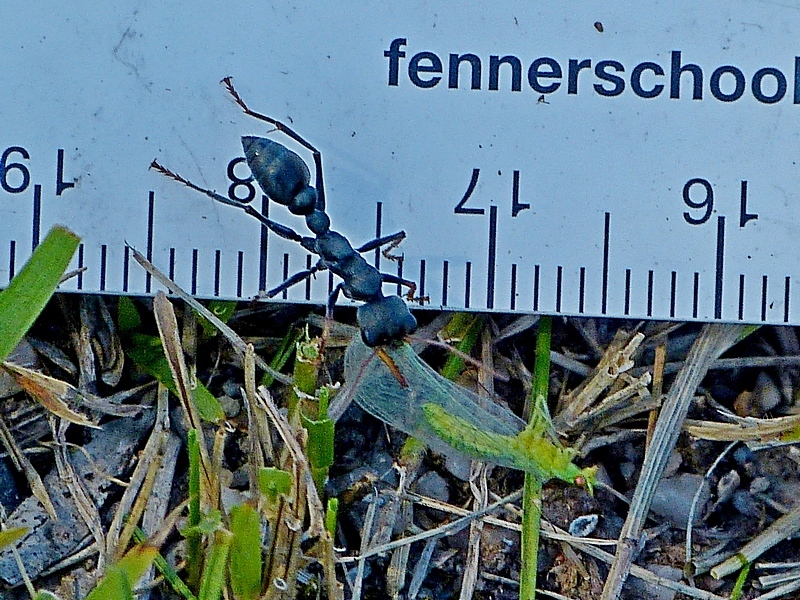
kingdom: Animalia
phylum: Arthropoda
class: Insecta
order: Hymenoptera
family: Formicidae
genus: Myrmecia
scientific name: Myrmecia pilosula
